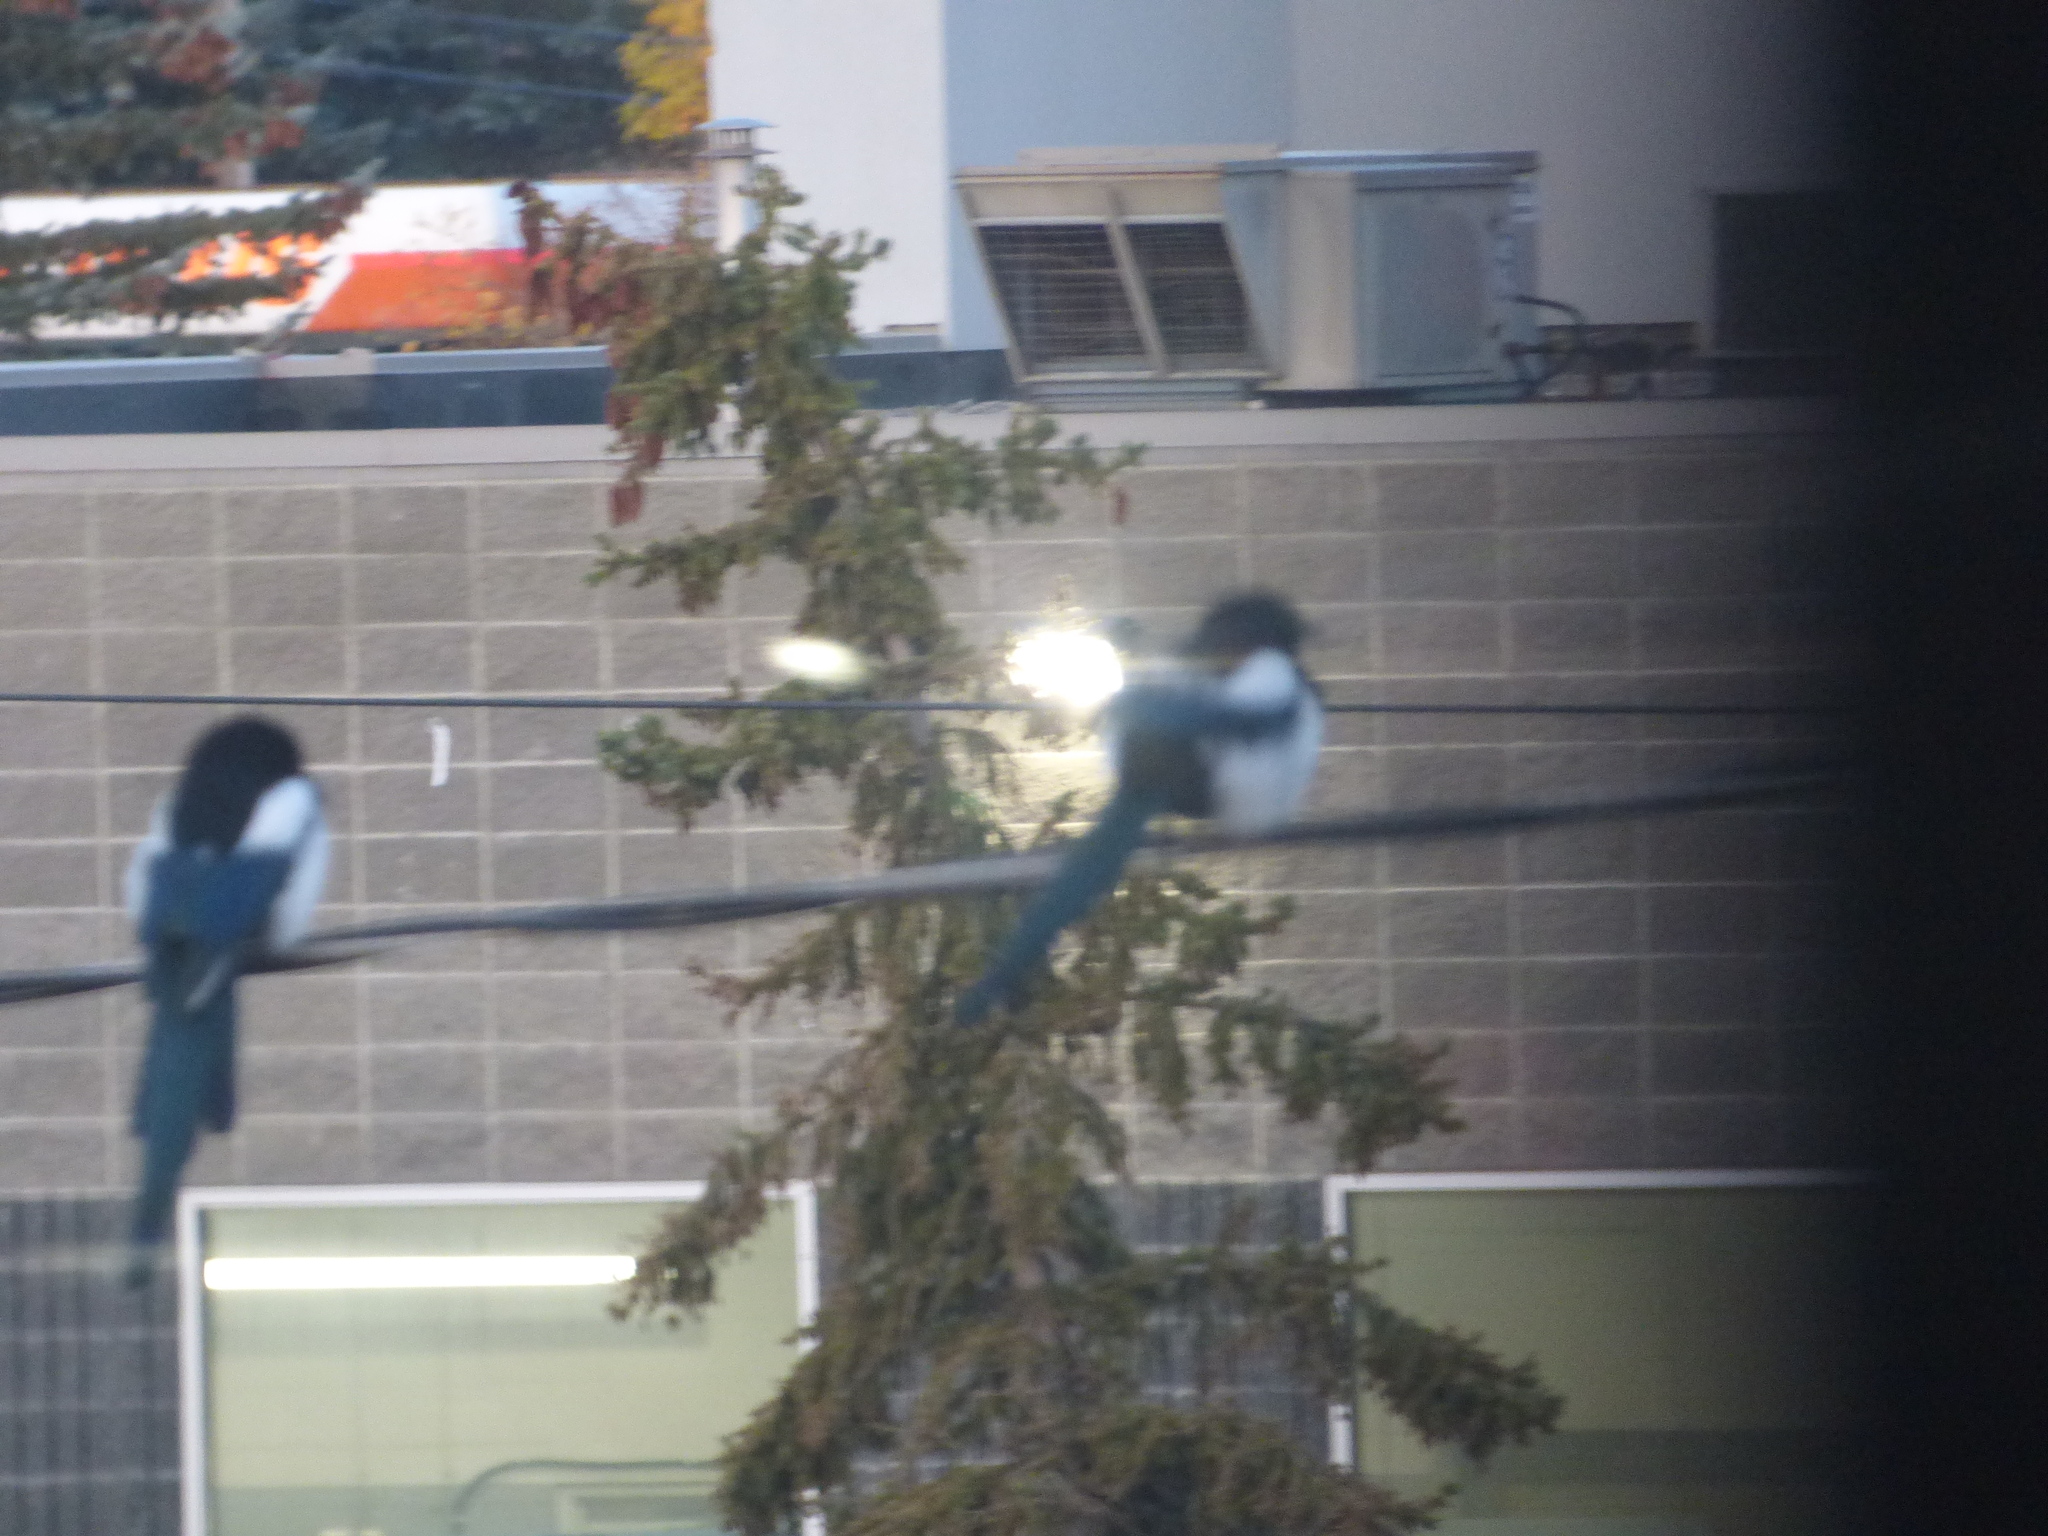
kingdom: Animalia
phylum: Chordata
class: Aves
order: Passeriformes
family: Corvidae
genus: Pica
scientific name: Pica hudsonia
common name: Black-billed magpie
